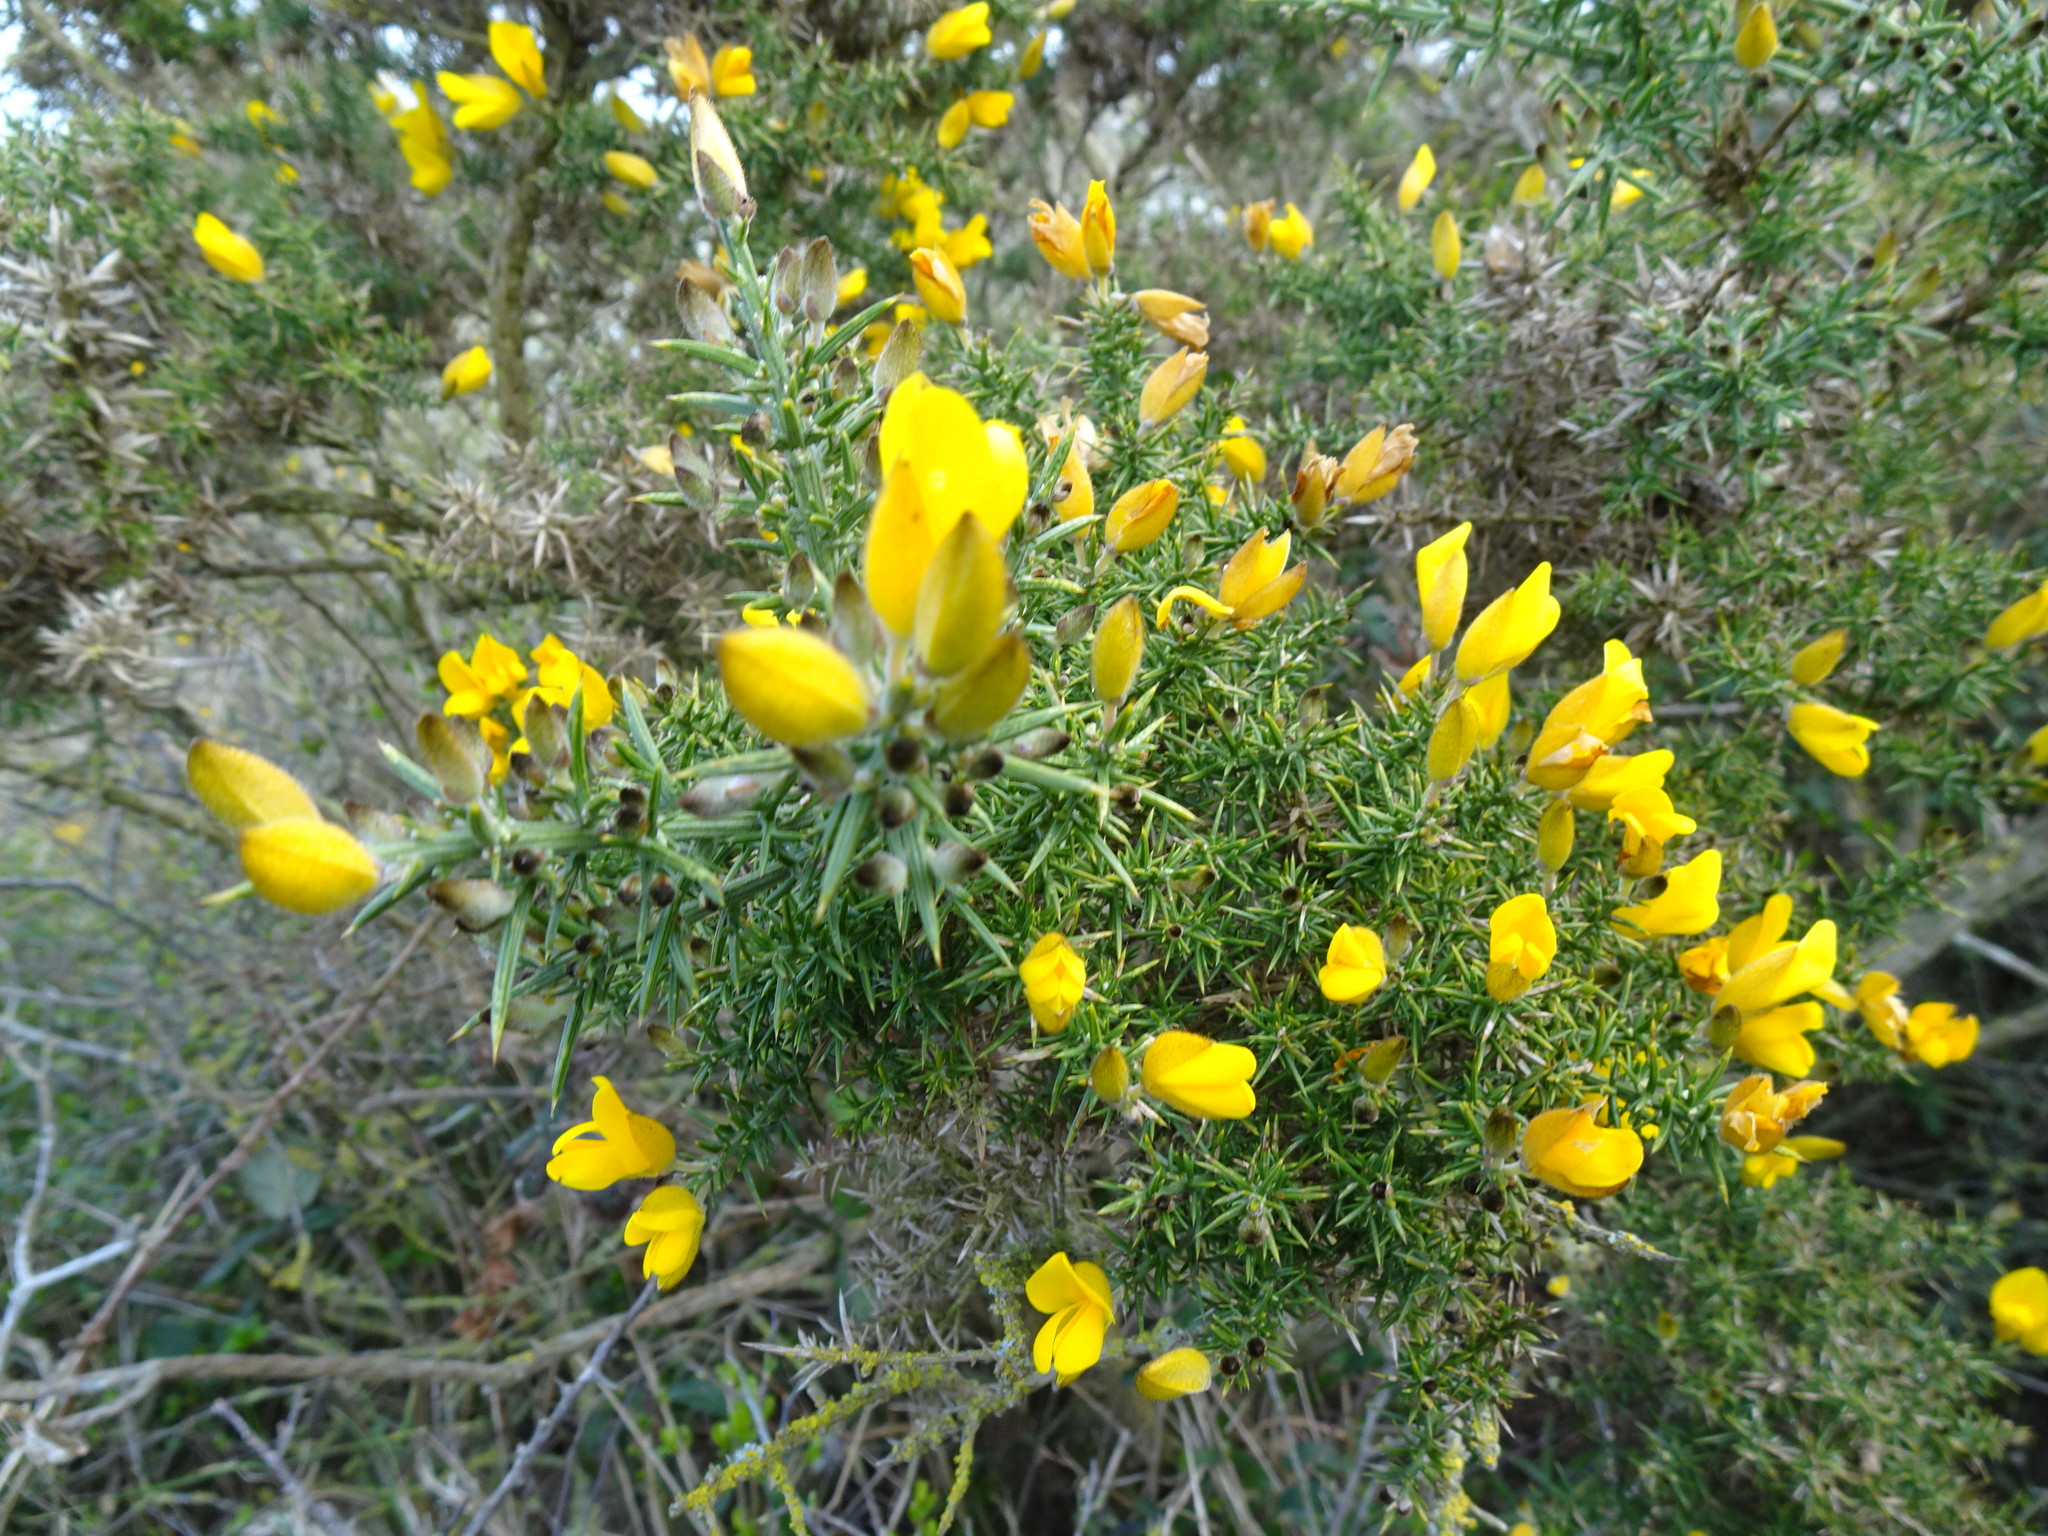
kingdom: Plantae
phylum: Tracheophyta
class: Magnoliopsida
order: Fabales
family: Fabaceae
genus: Ulex
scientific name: Ulex europaeus
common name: Common gorse
